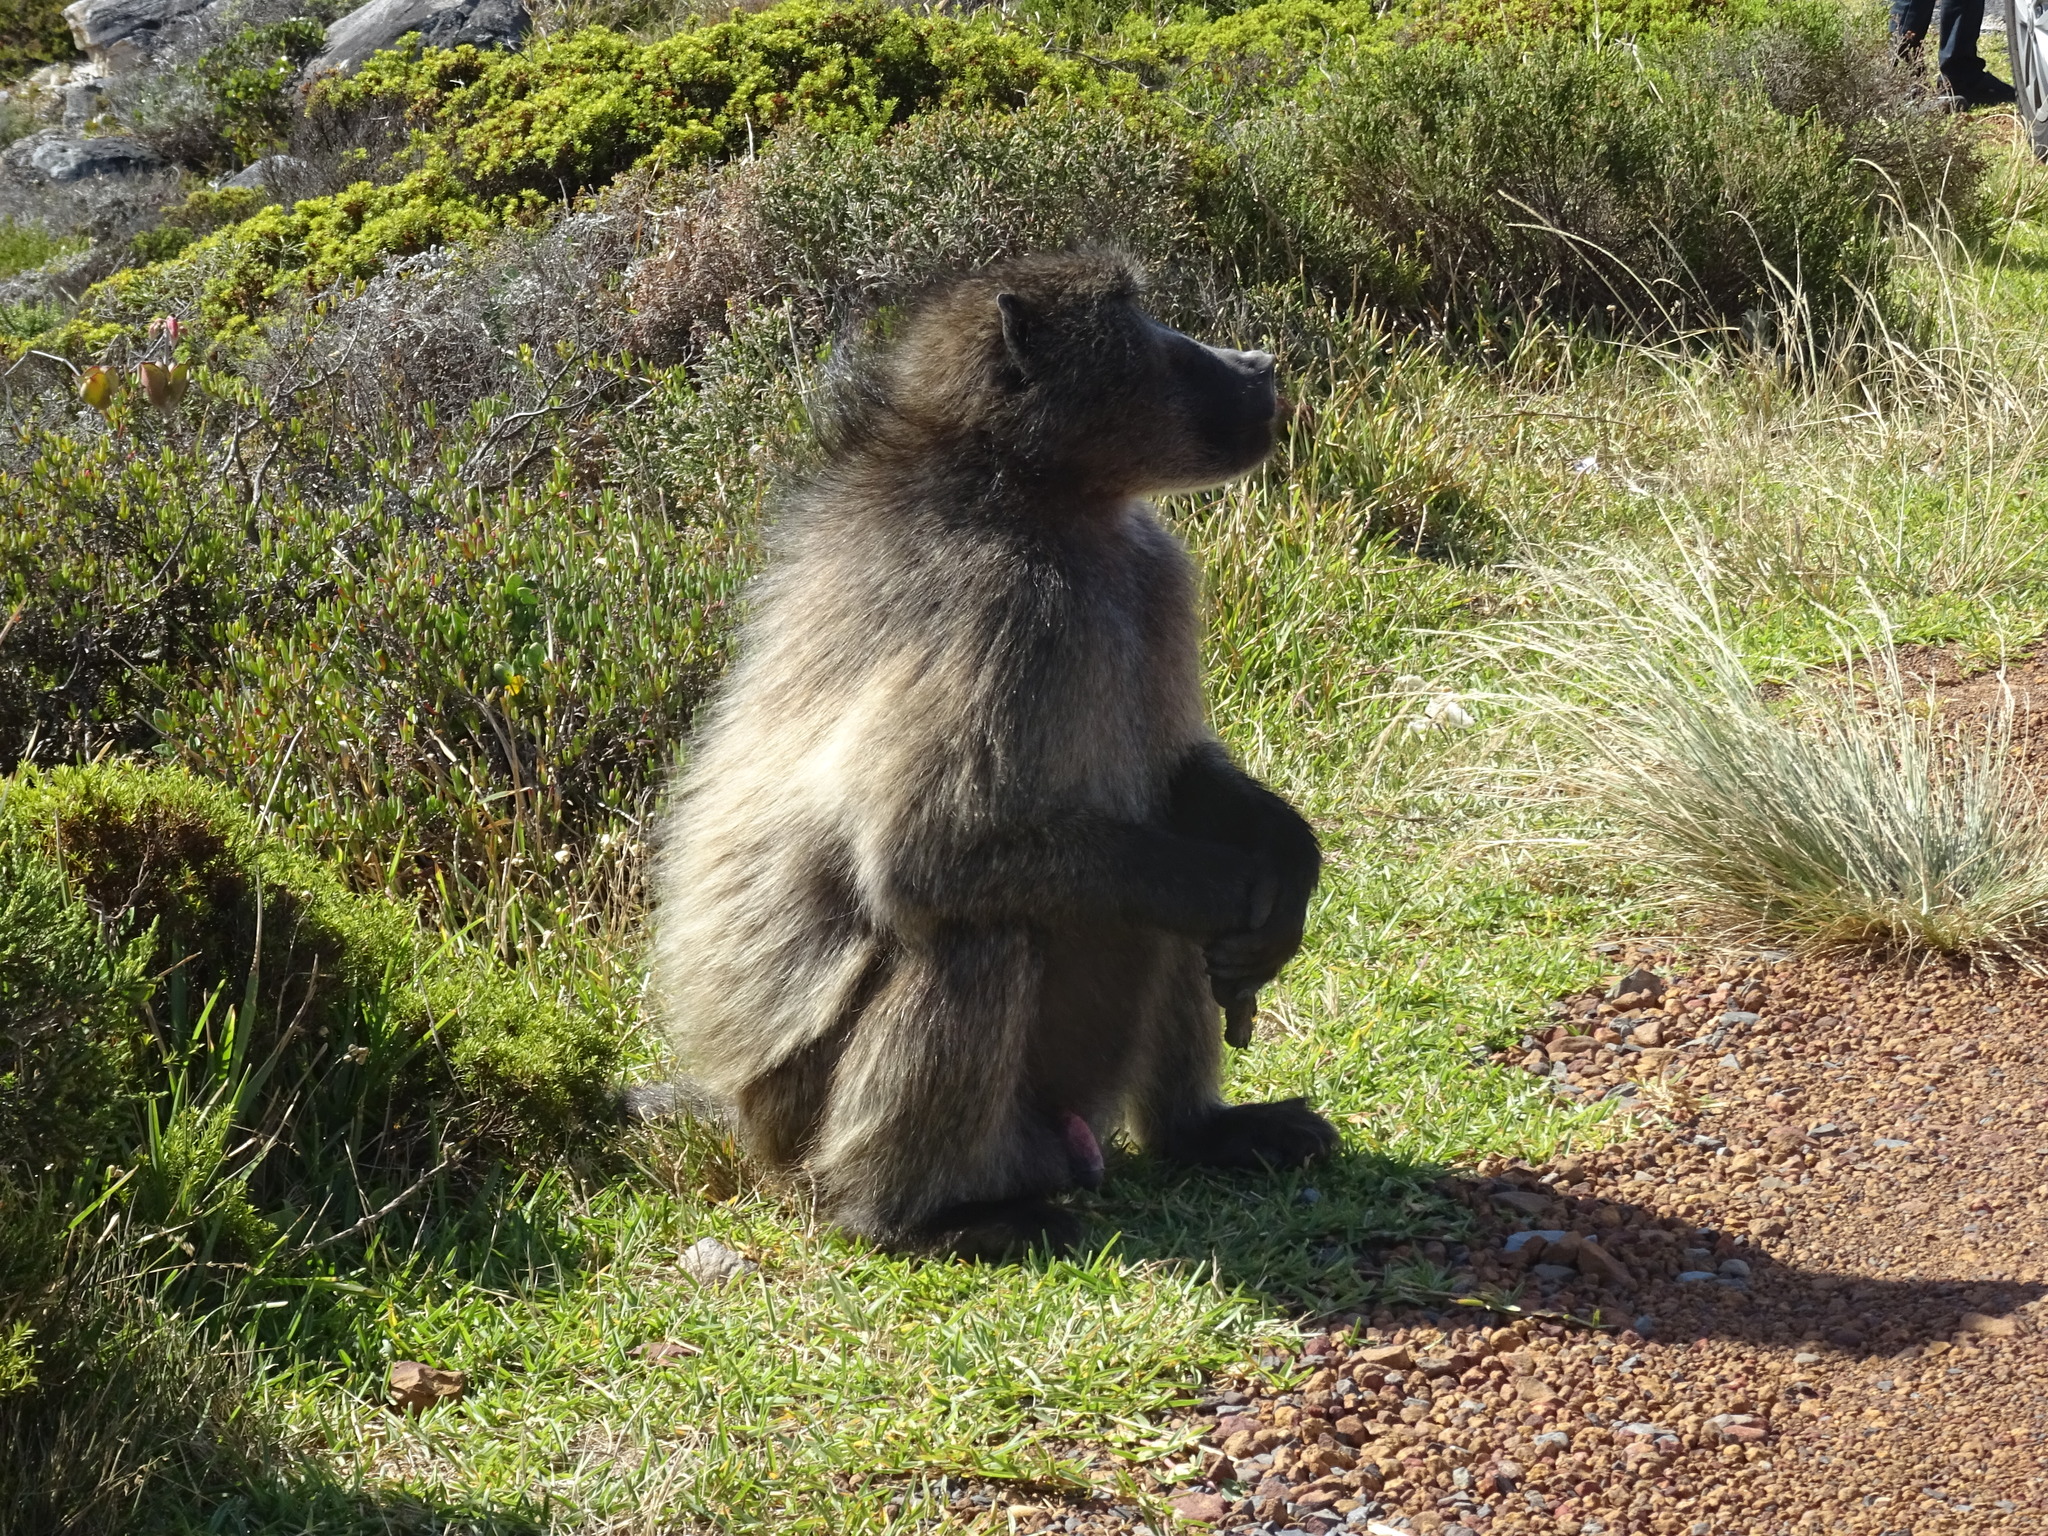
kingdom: Animalia
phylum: Chordata
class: Mammalia
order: Primates
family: Cercopithecidae
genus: Papio
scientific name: Papio ursinus
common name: Chacma baboon
